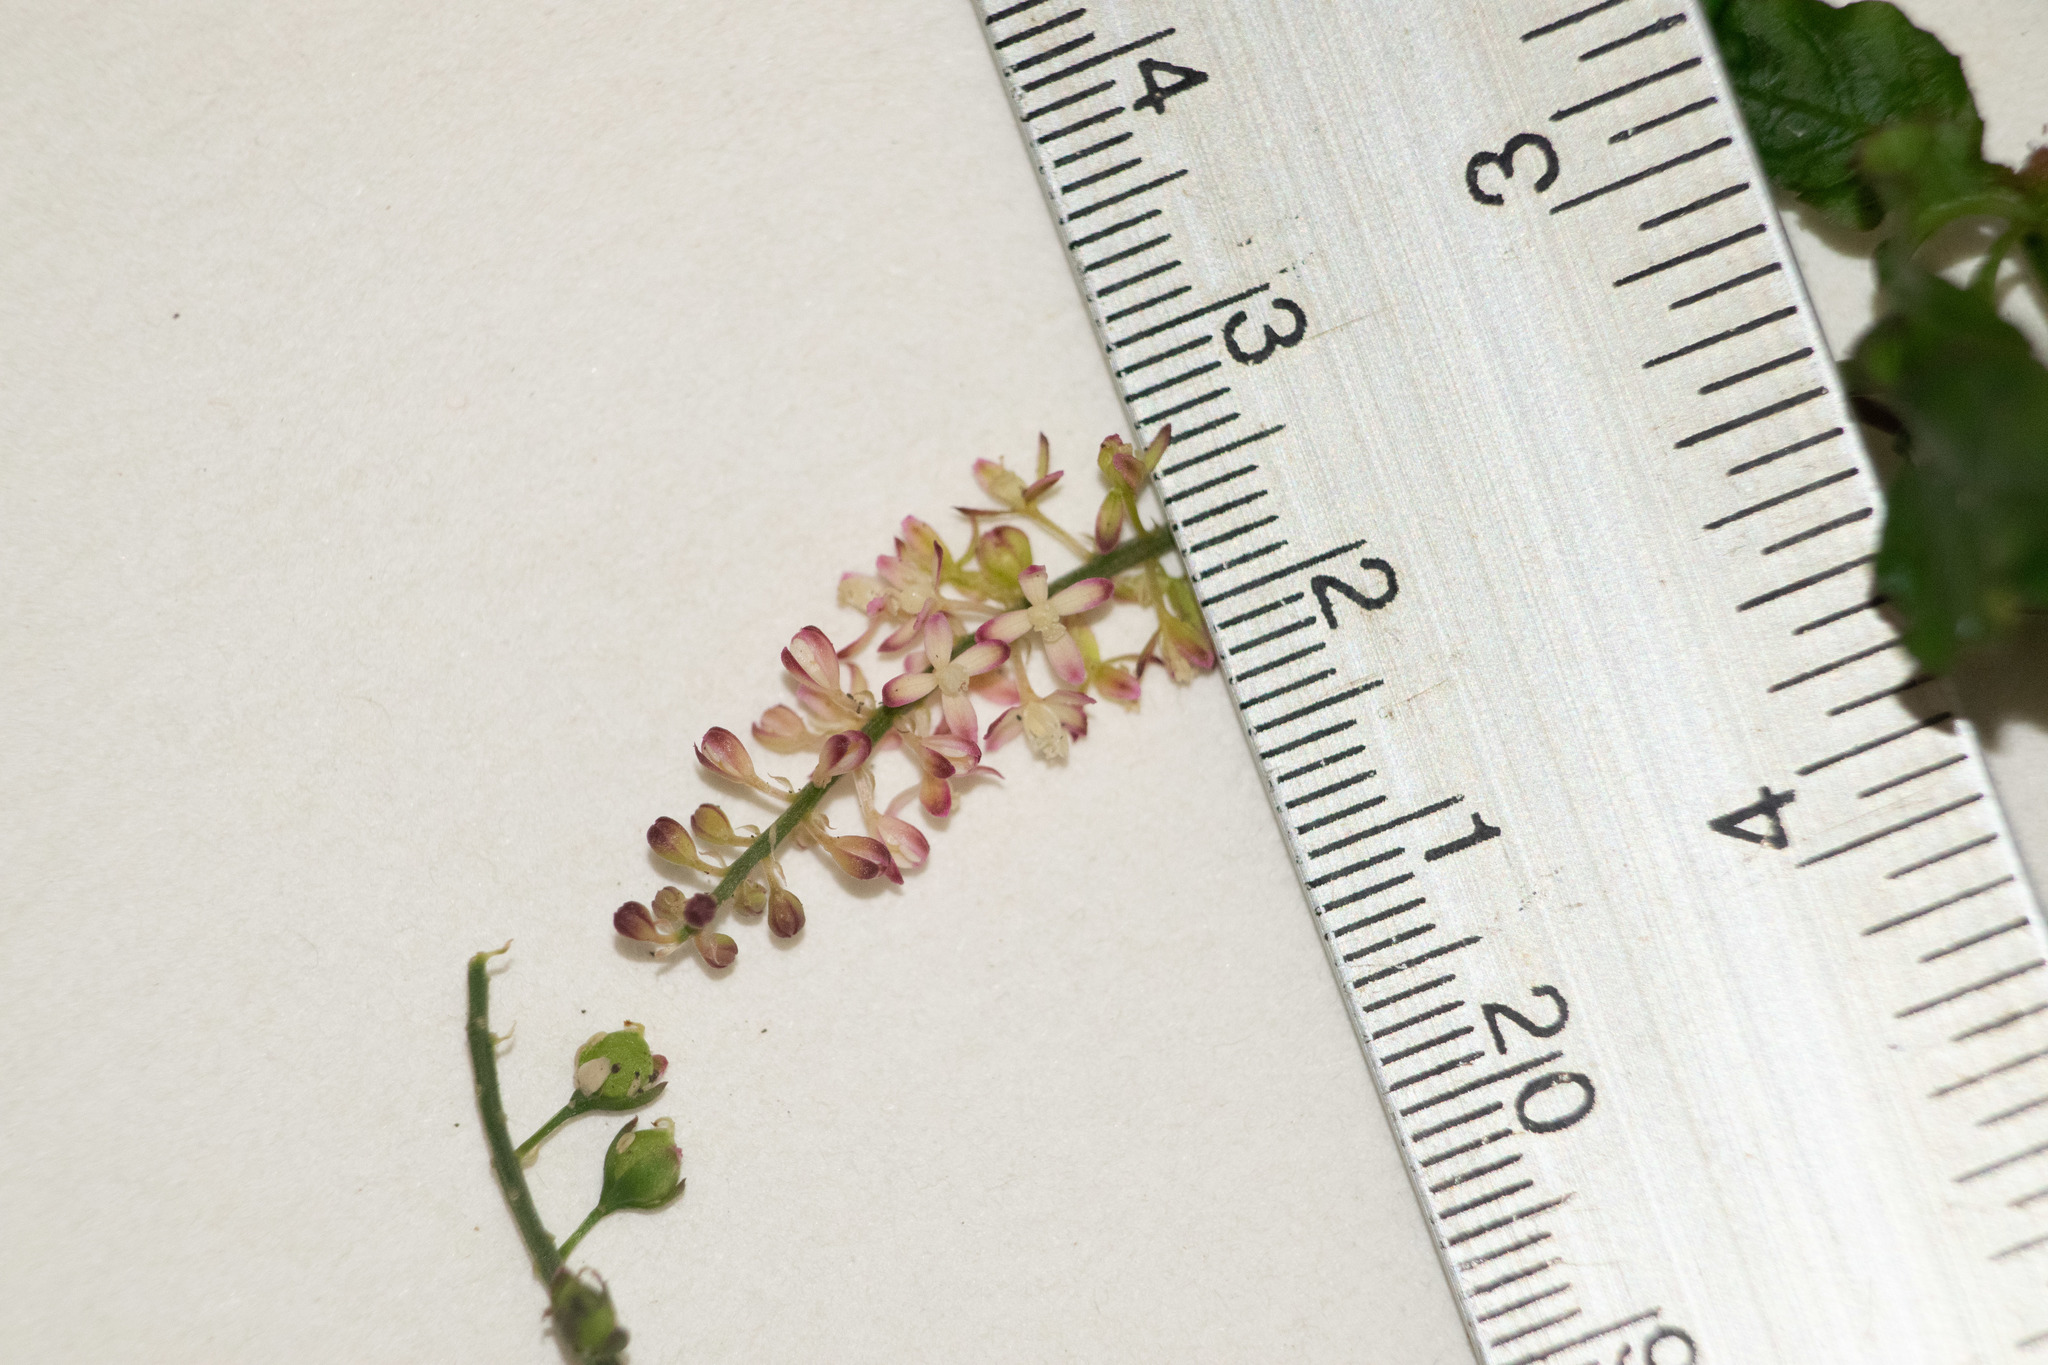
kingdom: Plantae
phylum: Tracheophyta
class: Magnoliopsida
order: Caryophyllales
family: Phytolaccaceae
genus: Rivina
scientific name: Rivina humilis
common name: Rougeplant
